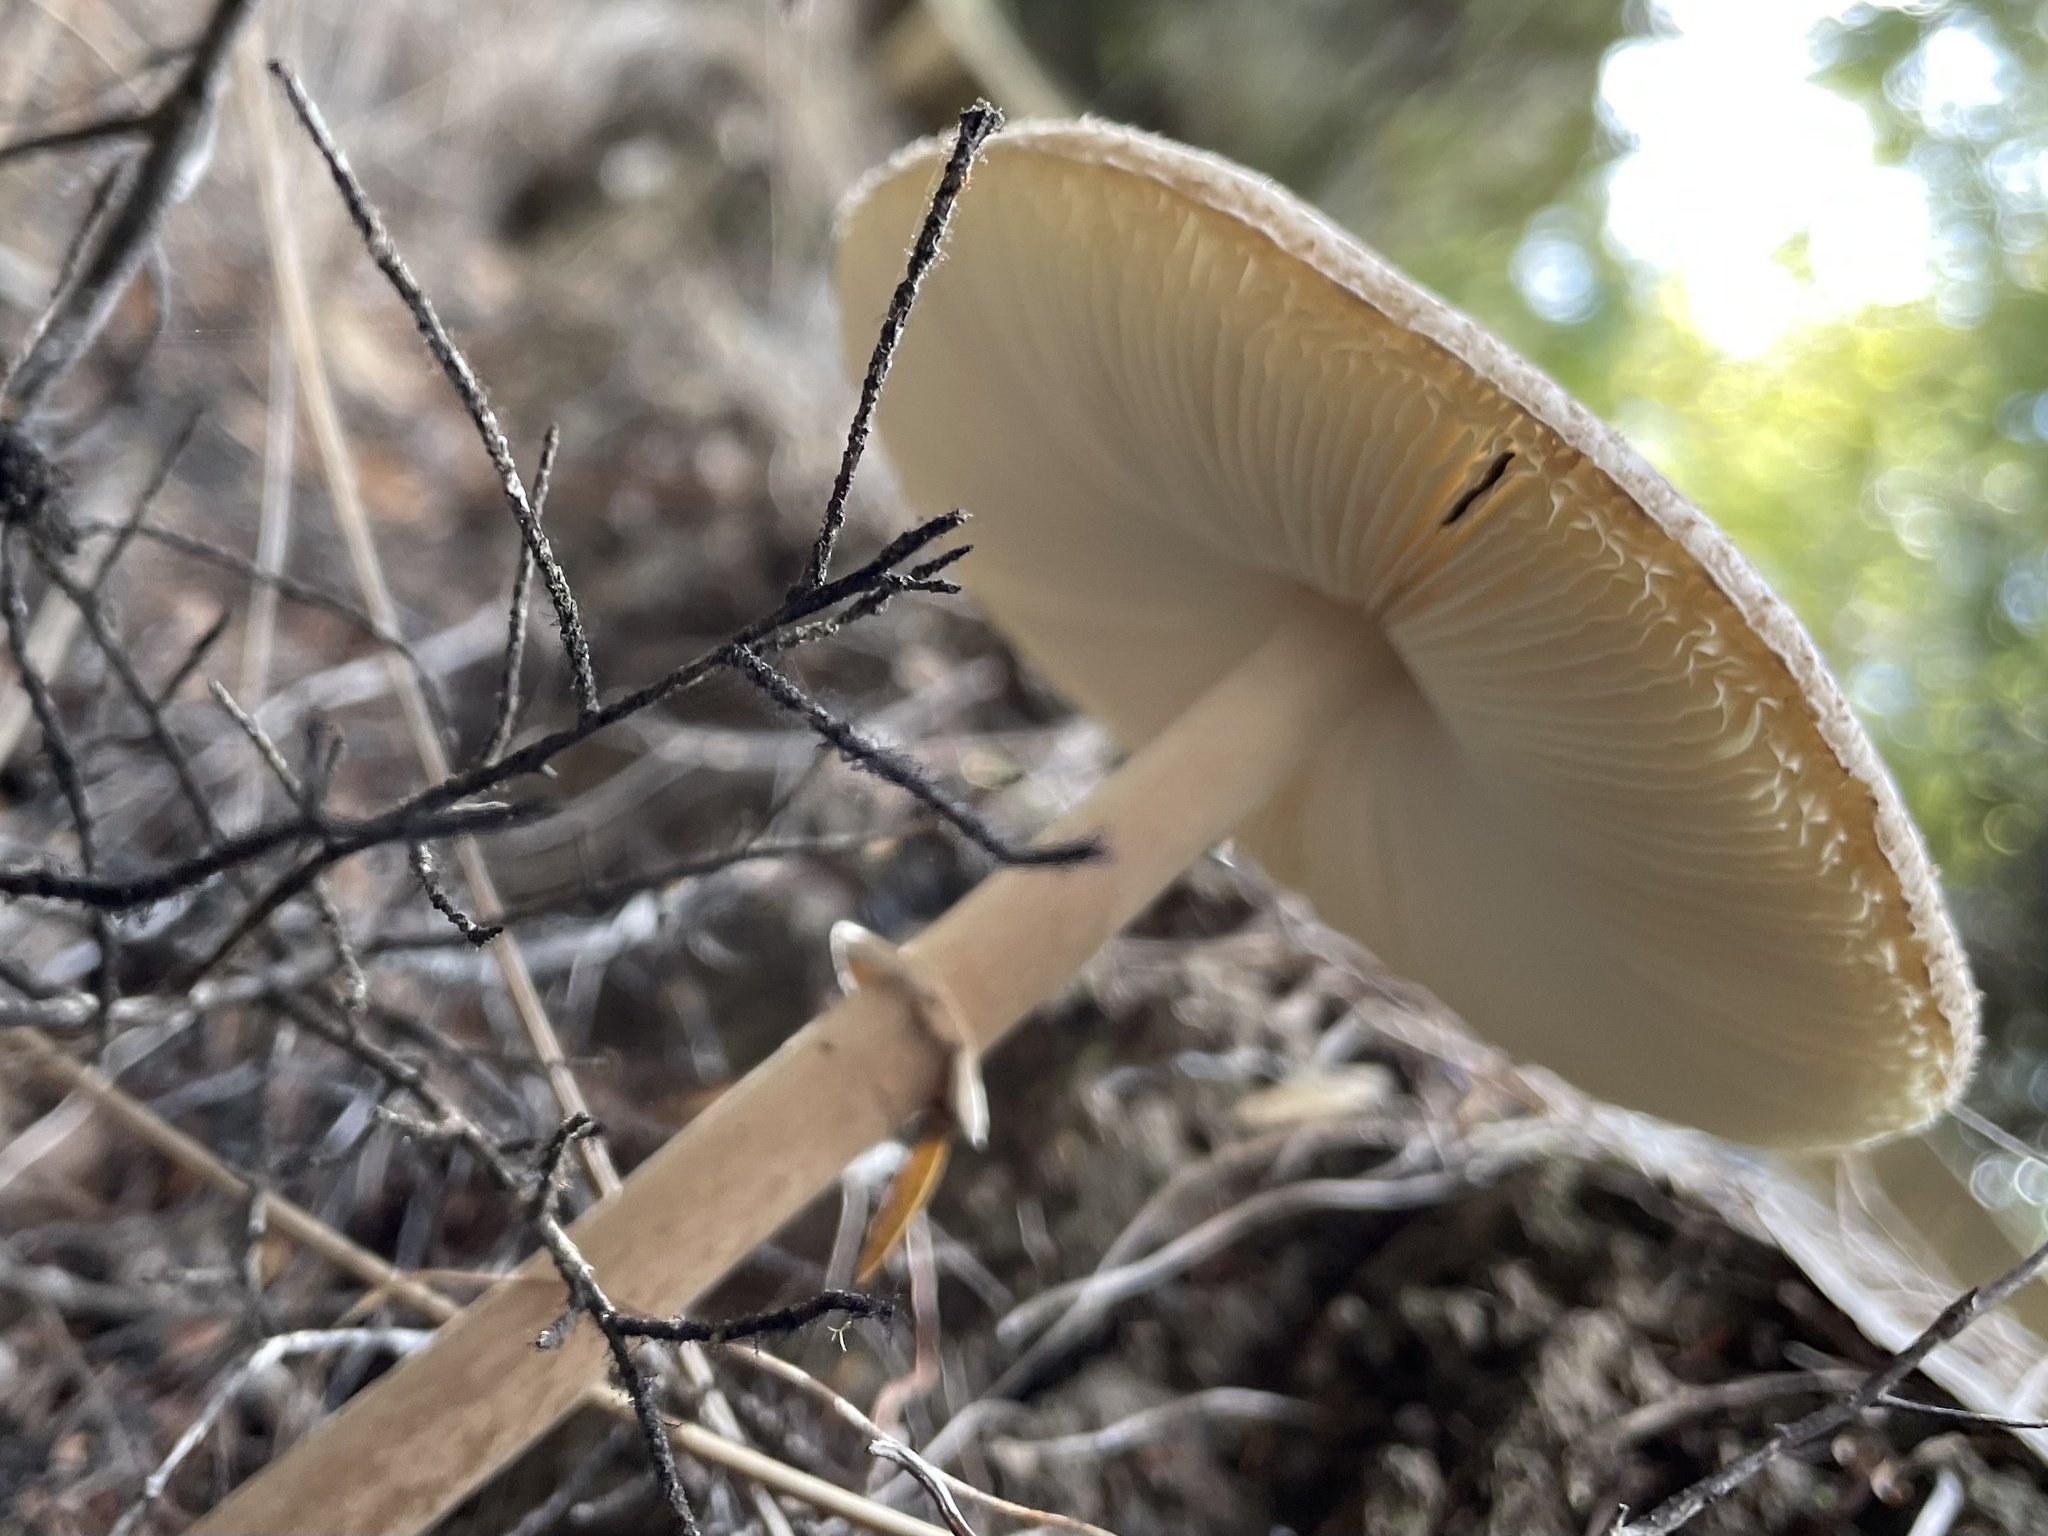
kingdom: Fungi
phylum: Basidiomycota
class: Agaricomycetes
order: Agaricales
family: Agaricaceae
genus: Macrolepiota
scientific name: Macrolepiota clelandii
